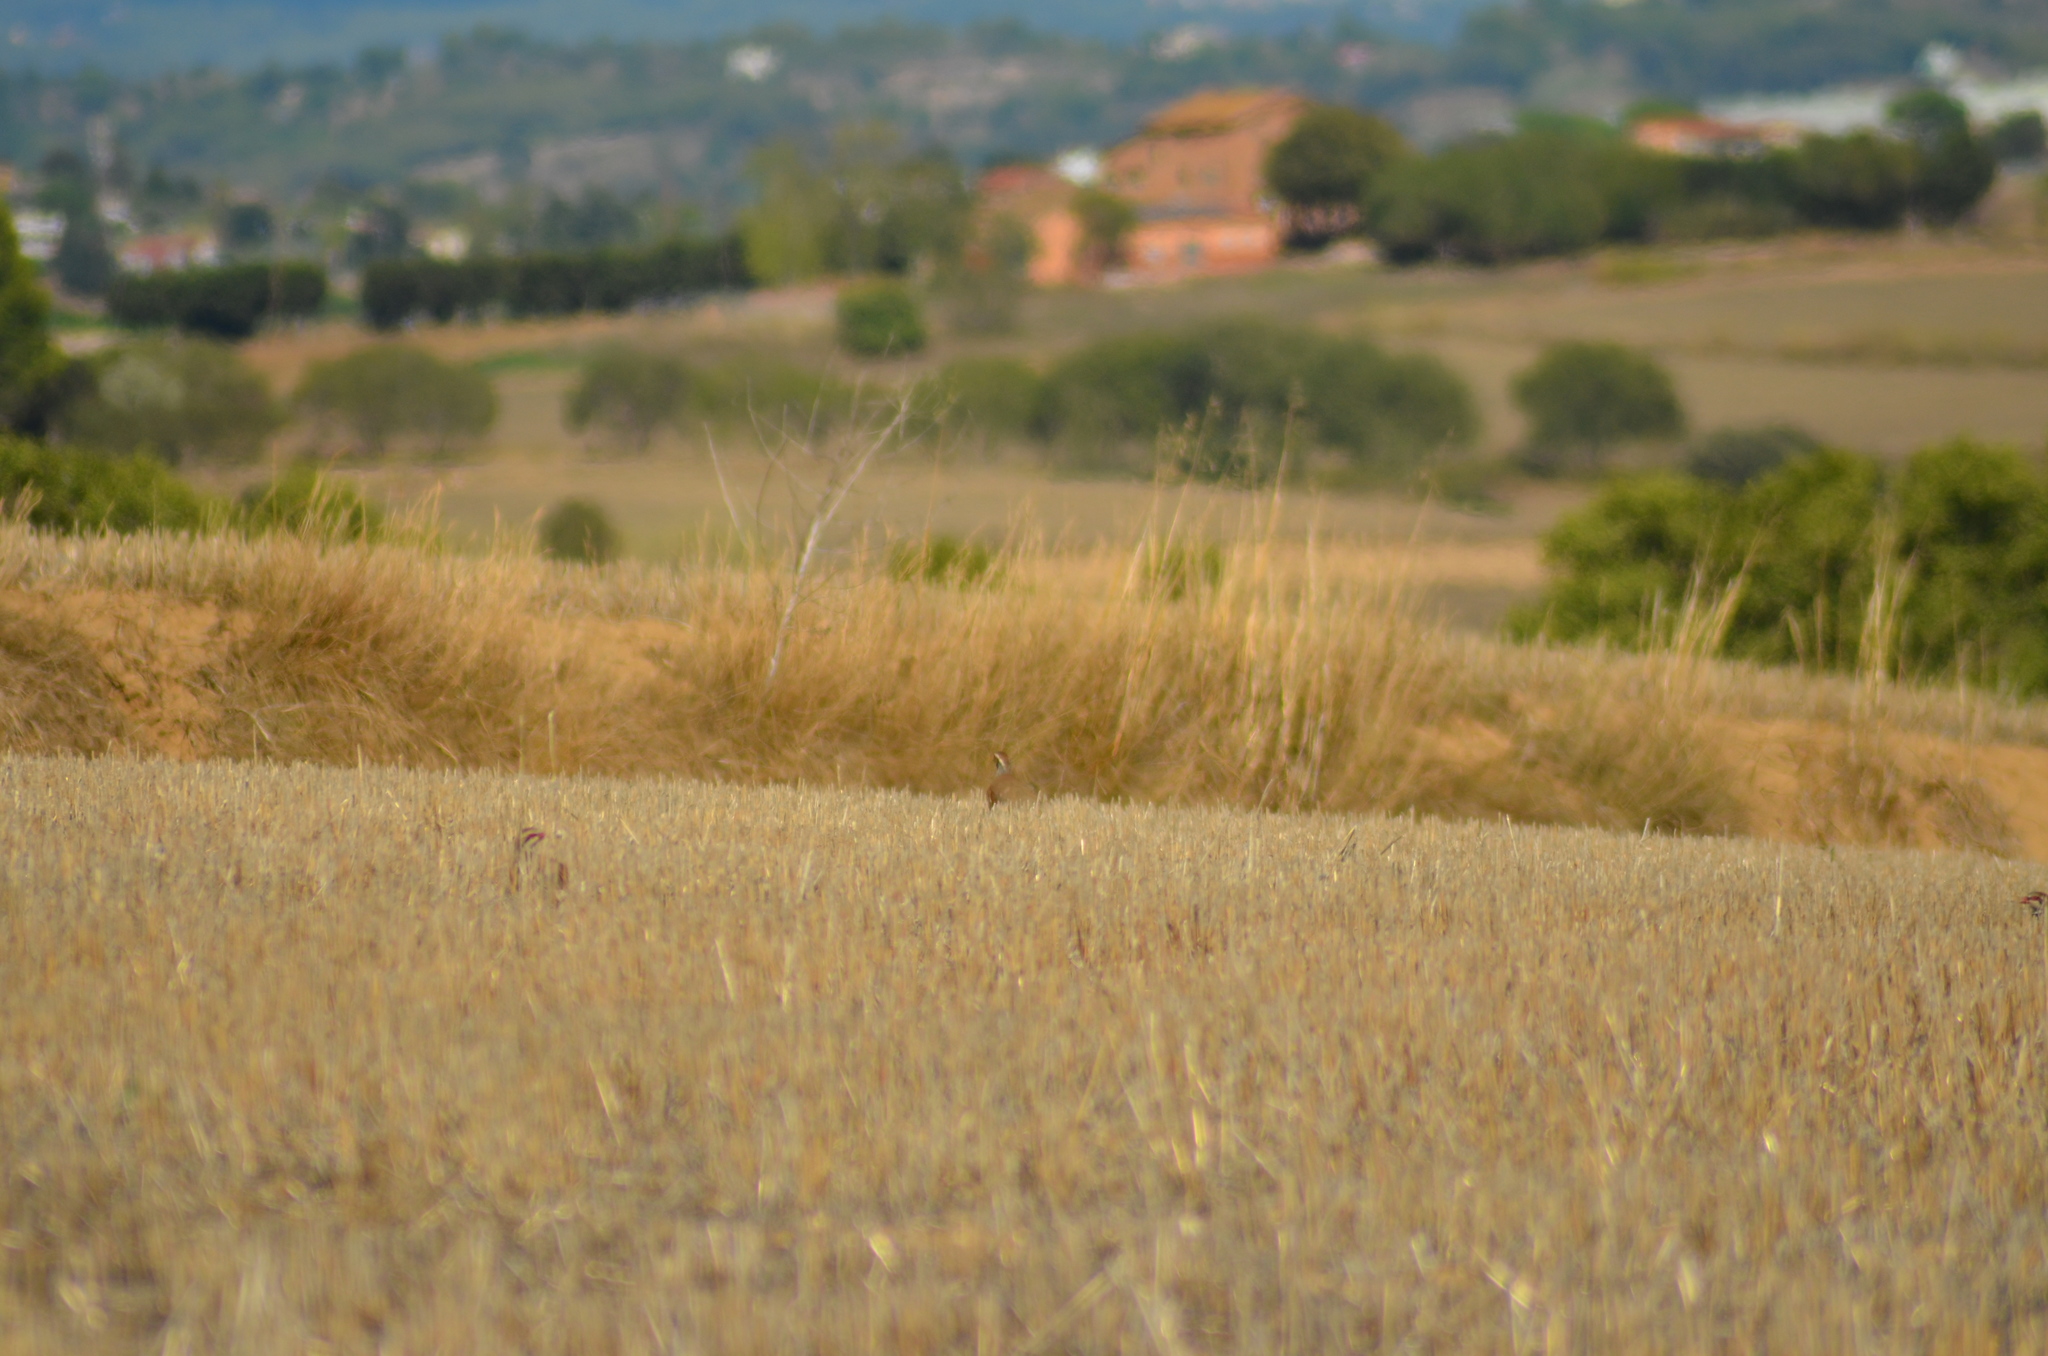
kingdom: Animalia
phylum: Chordata
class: Aves
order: Galliformes
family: Phasianidae
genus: Alectoris
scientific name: Alectoris rufa
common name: Red-legged partridge
